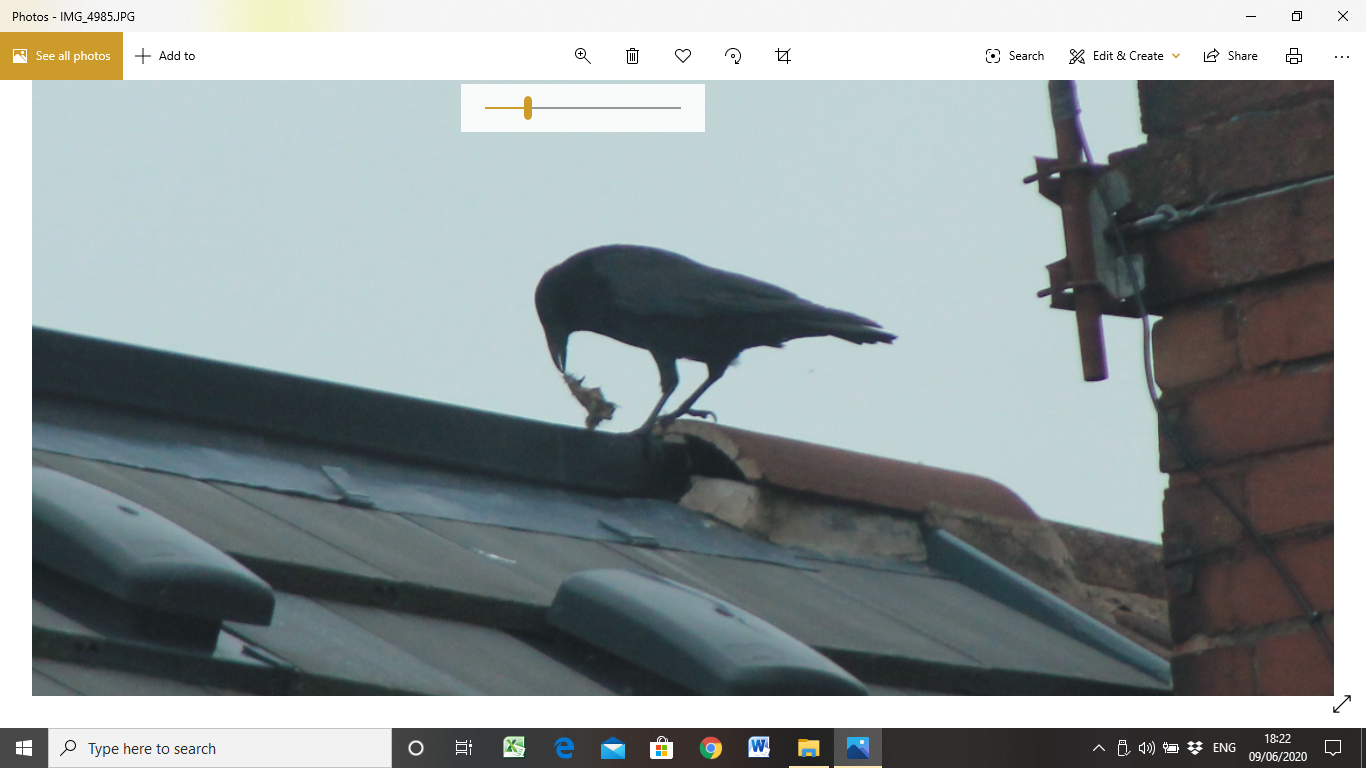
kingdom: Animalia
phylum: Chordata
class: Aves
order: Passeriformes
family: Corvidae
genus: Corvus
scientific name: Corvus corone
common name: Carrion crow
